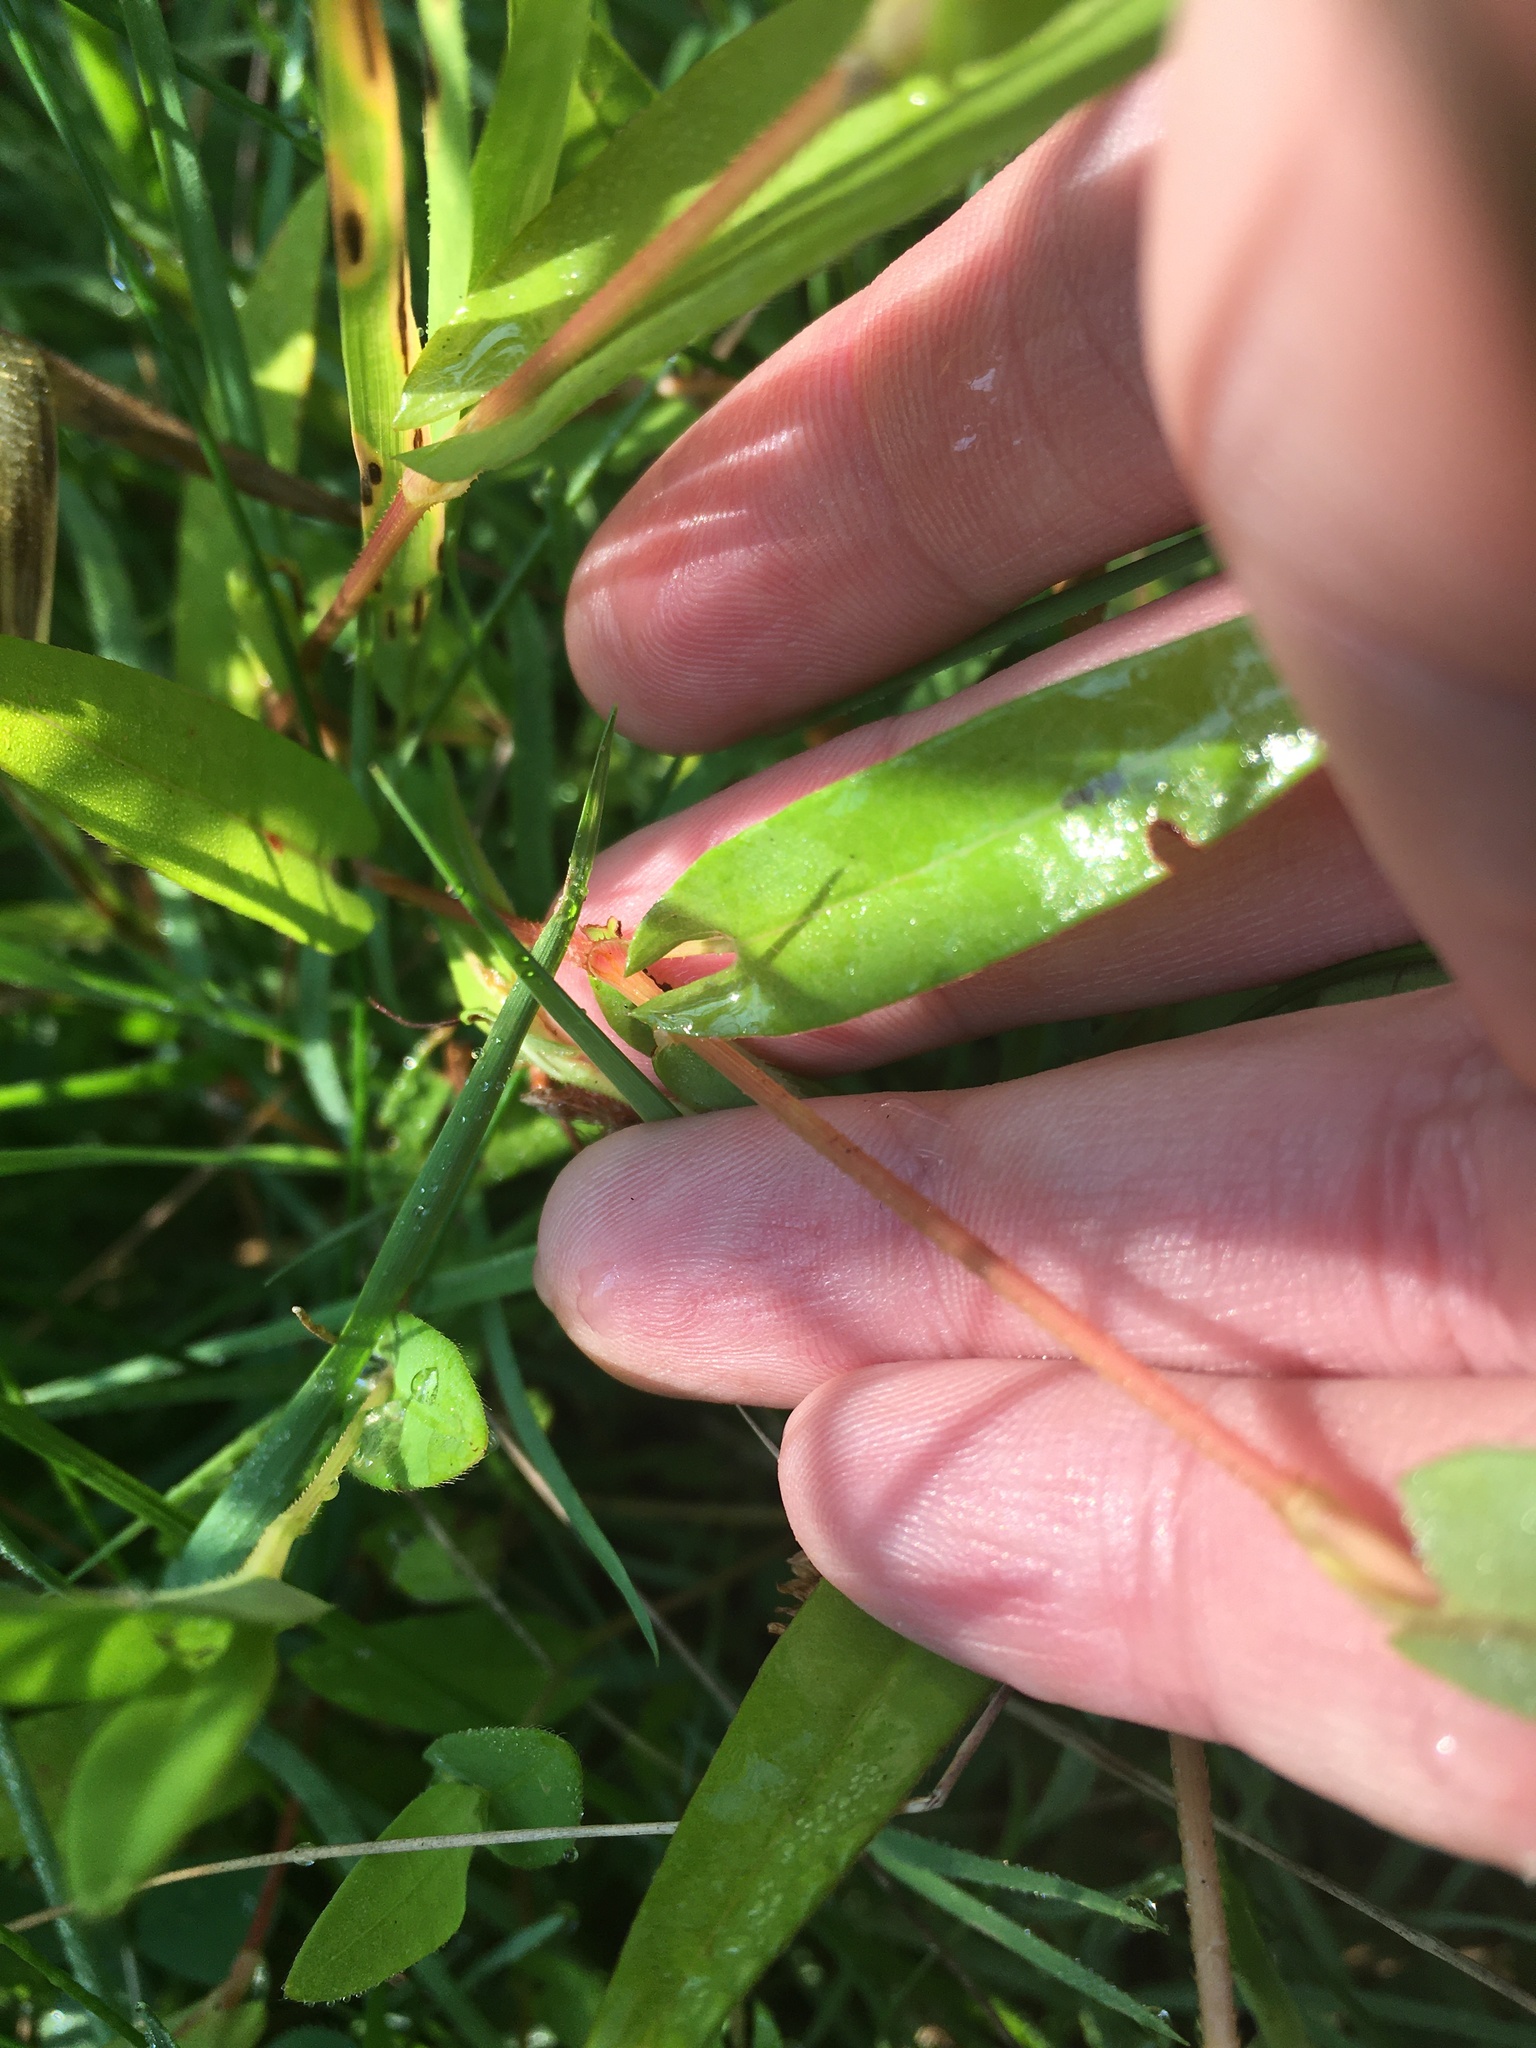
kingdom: Plantae
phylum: Tracheophyta
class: Magnoliopsida
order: Caryophyllales
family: Polygonaceae
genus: Persicaria
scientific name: Persicaria sagittata
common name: American tearthumb
